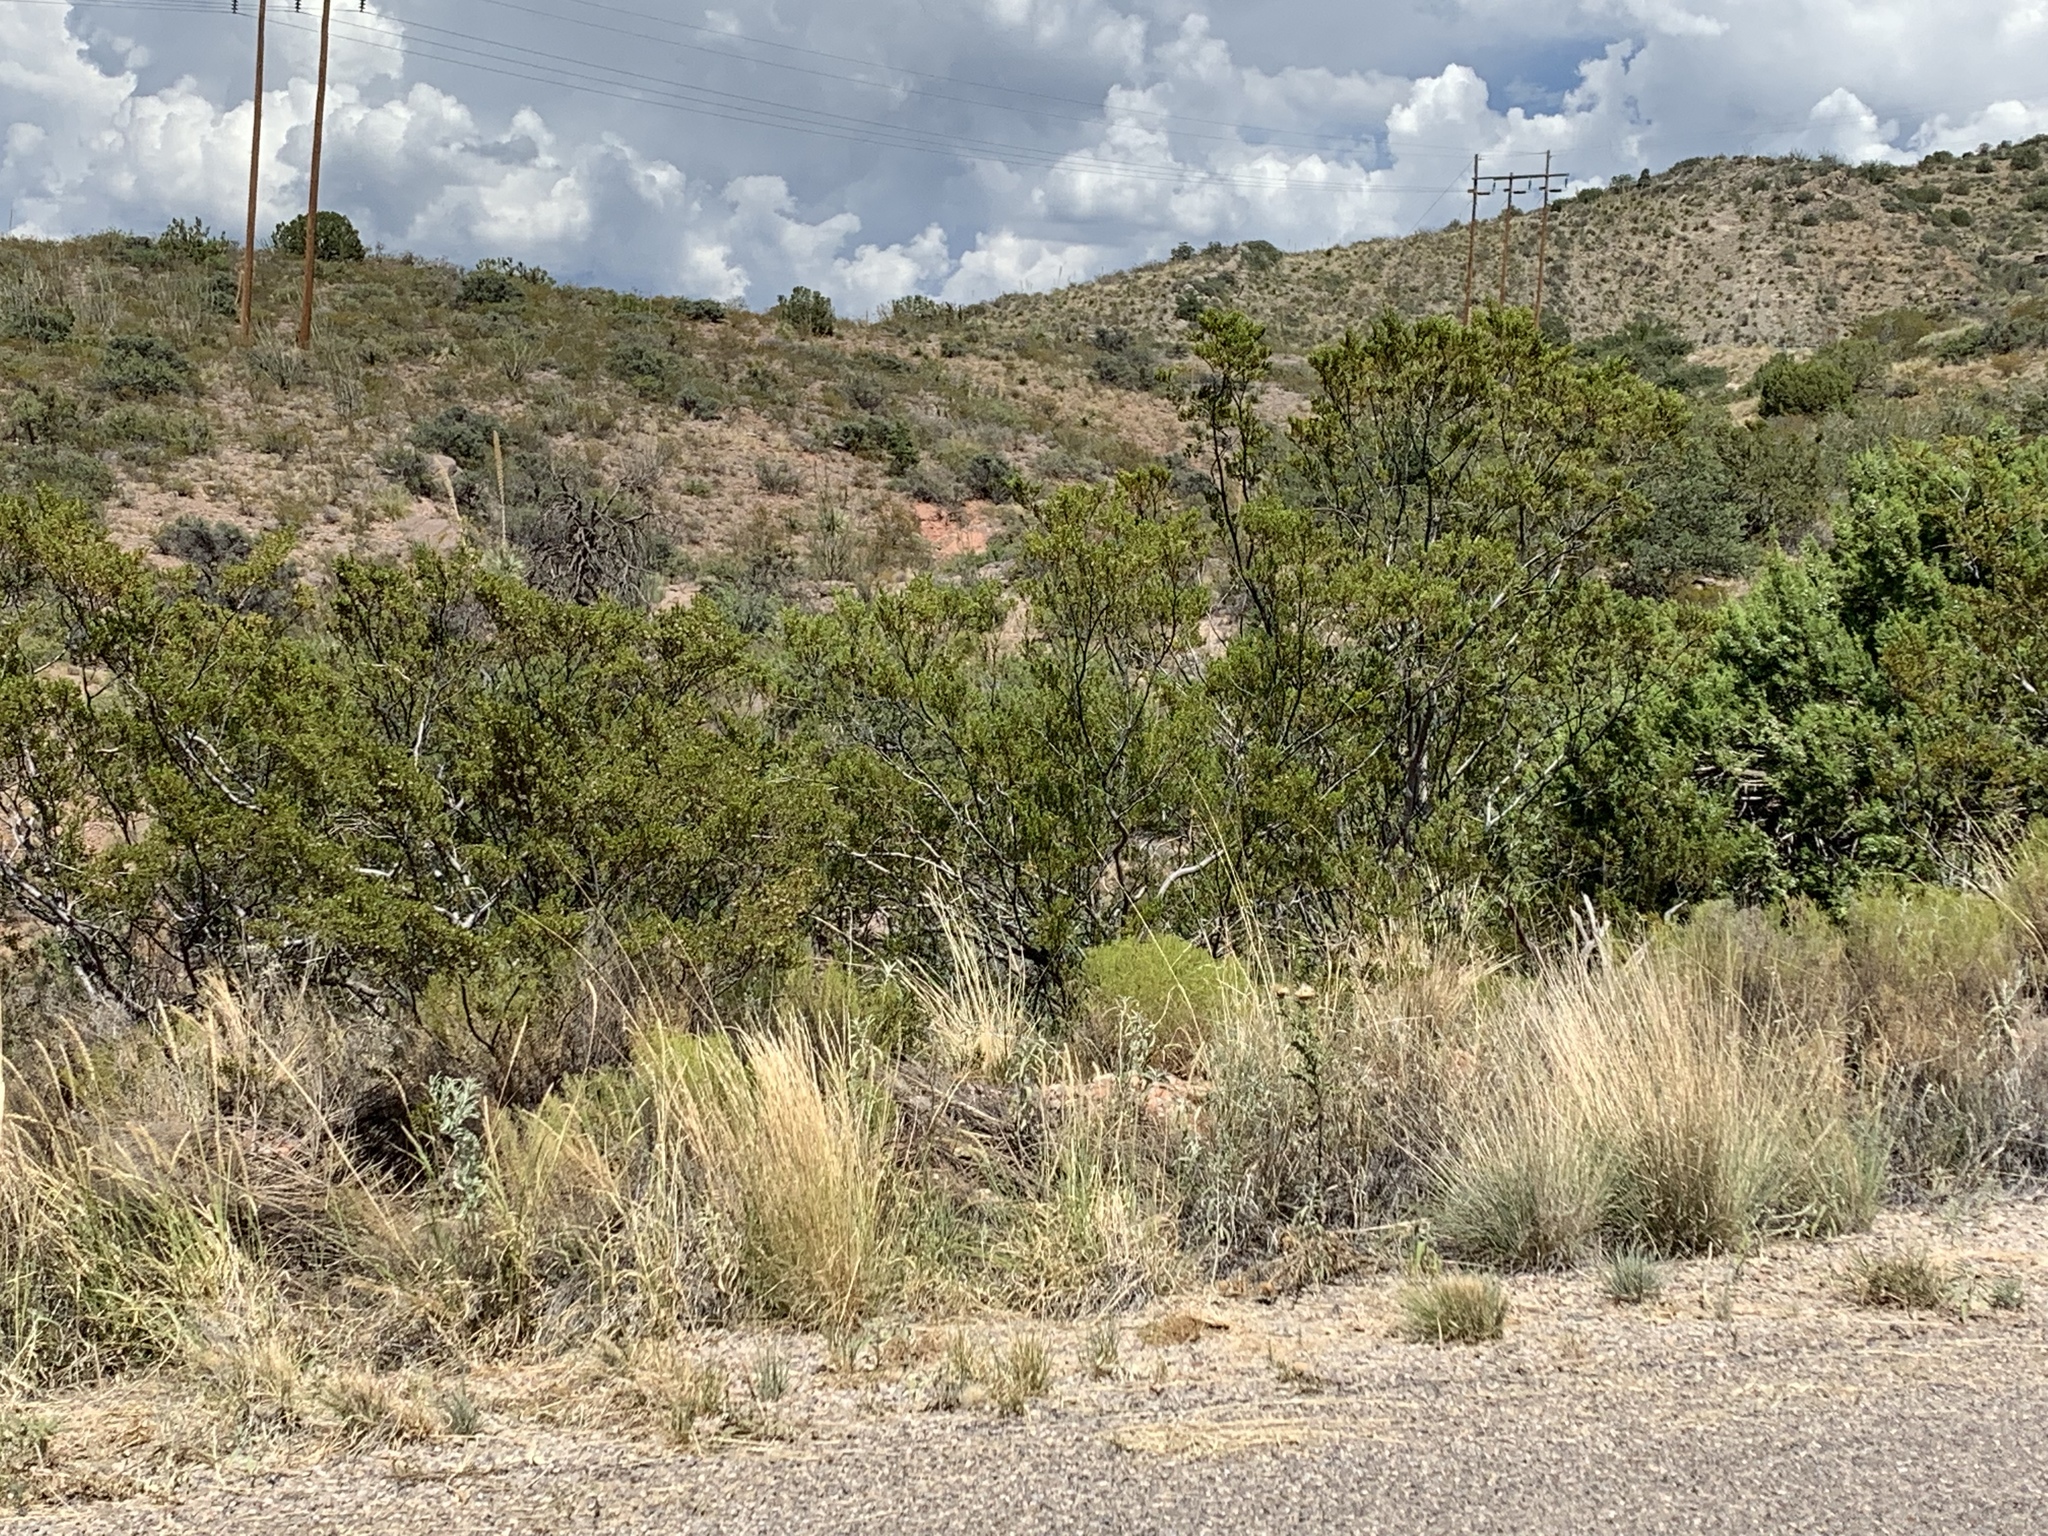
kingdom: Plantae
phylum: Tracheophyta
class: Magnoliopsida
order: Zygophyllales
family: Zygophyllaceae
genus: Larrea
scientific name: Larrea tridentata
